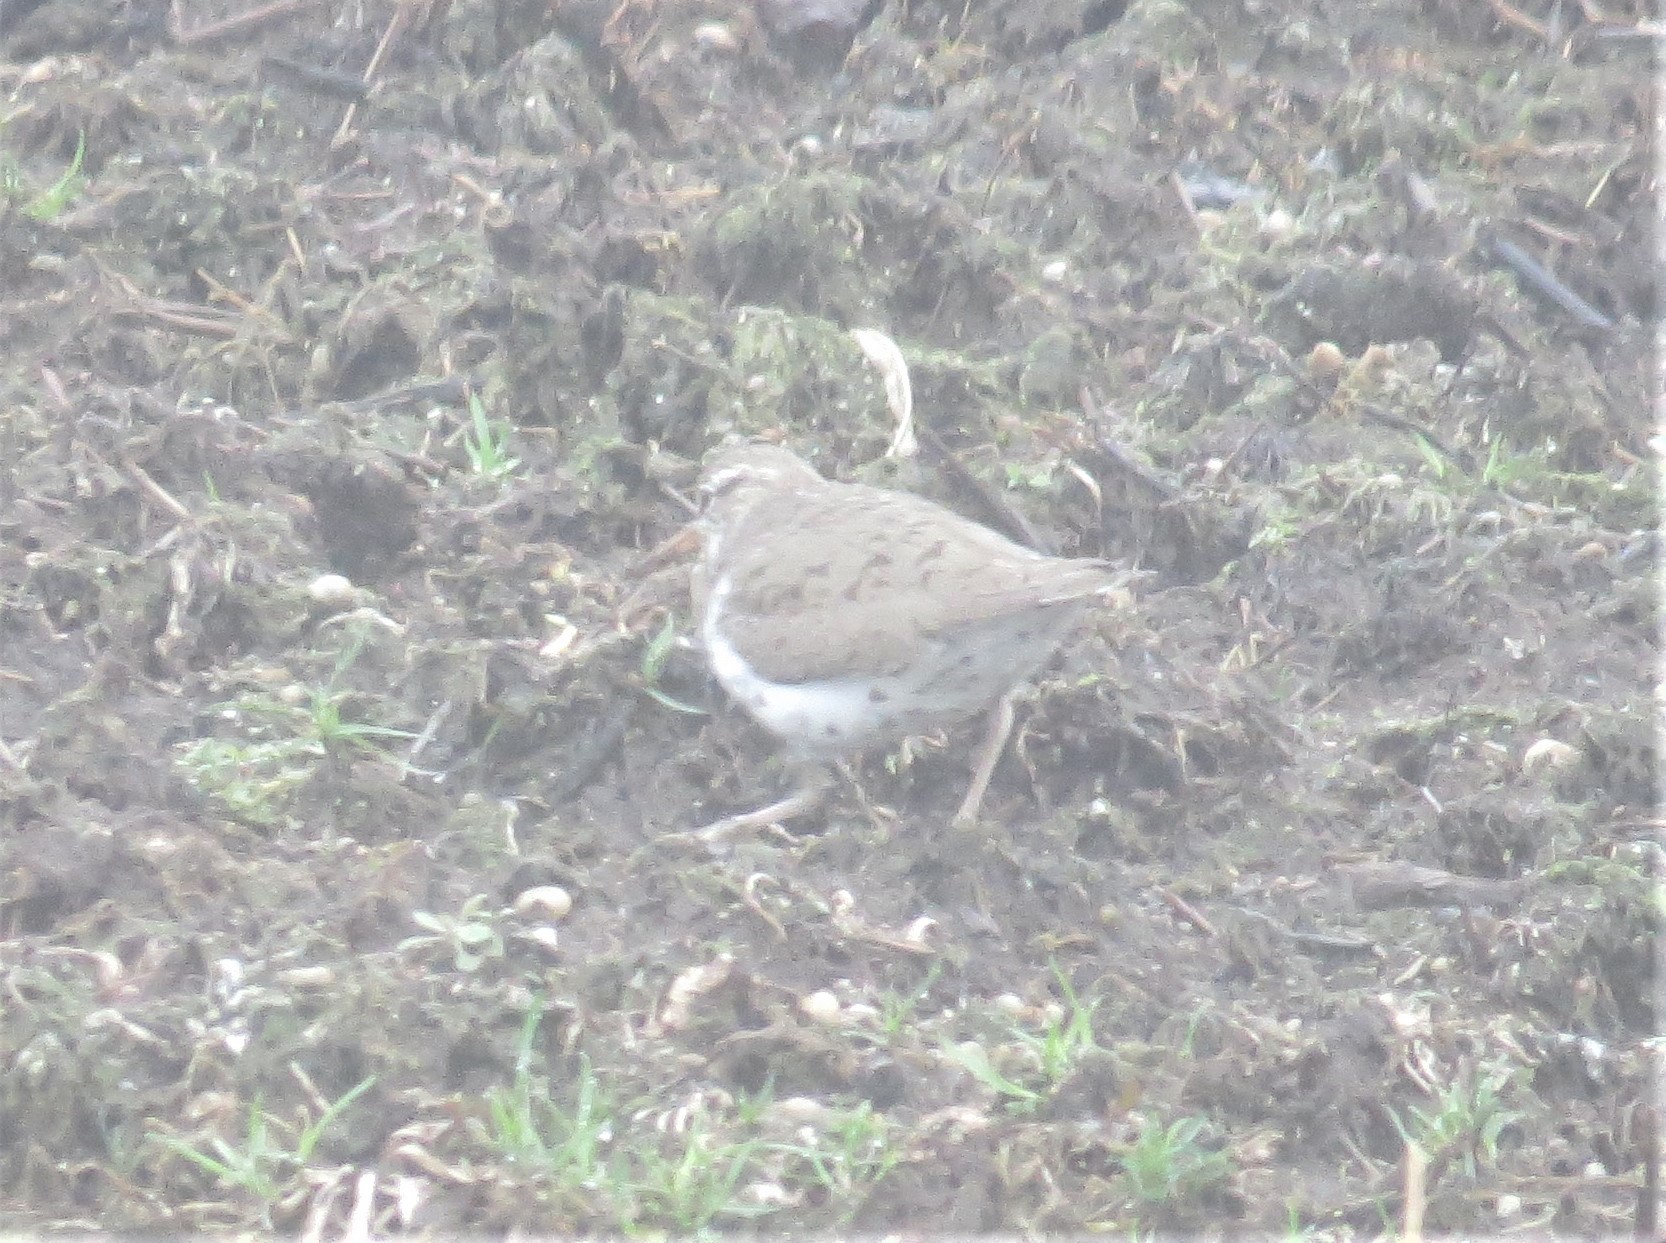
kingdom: Animalia
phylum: Chordata
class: Aves
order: Charadriiformes
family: Scolopacidae
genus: Actitis
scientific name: Actitis macularius
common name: Spotted sandpiper
